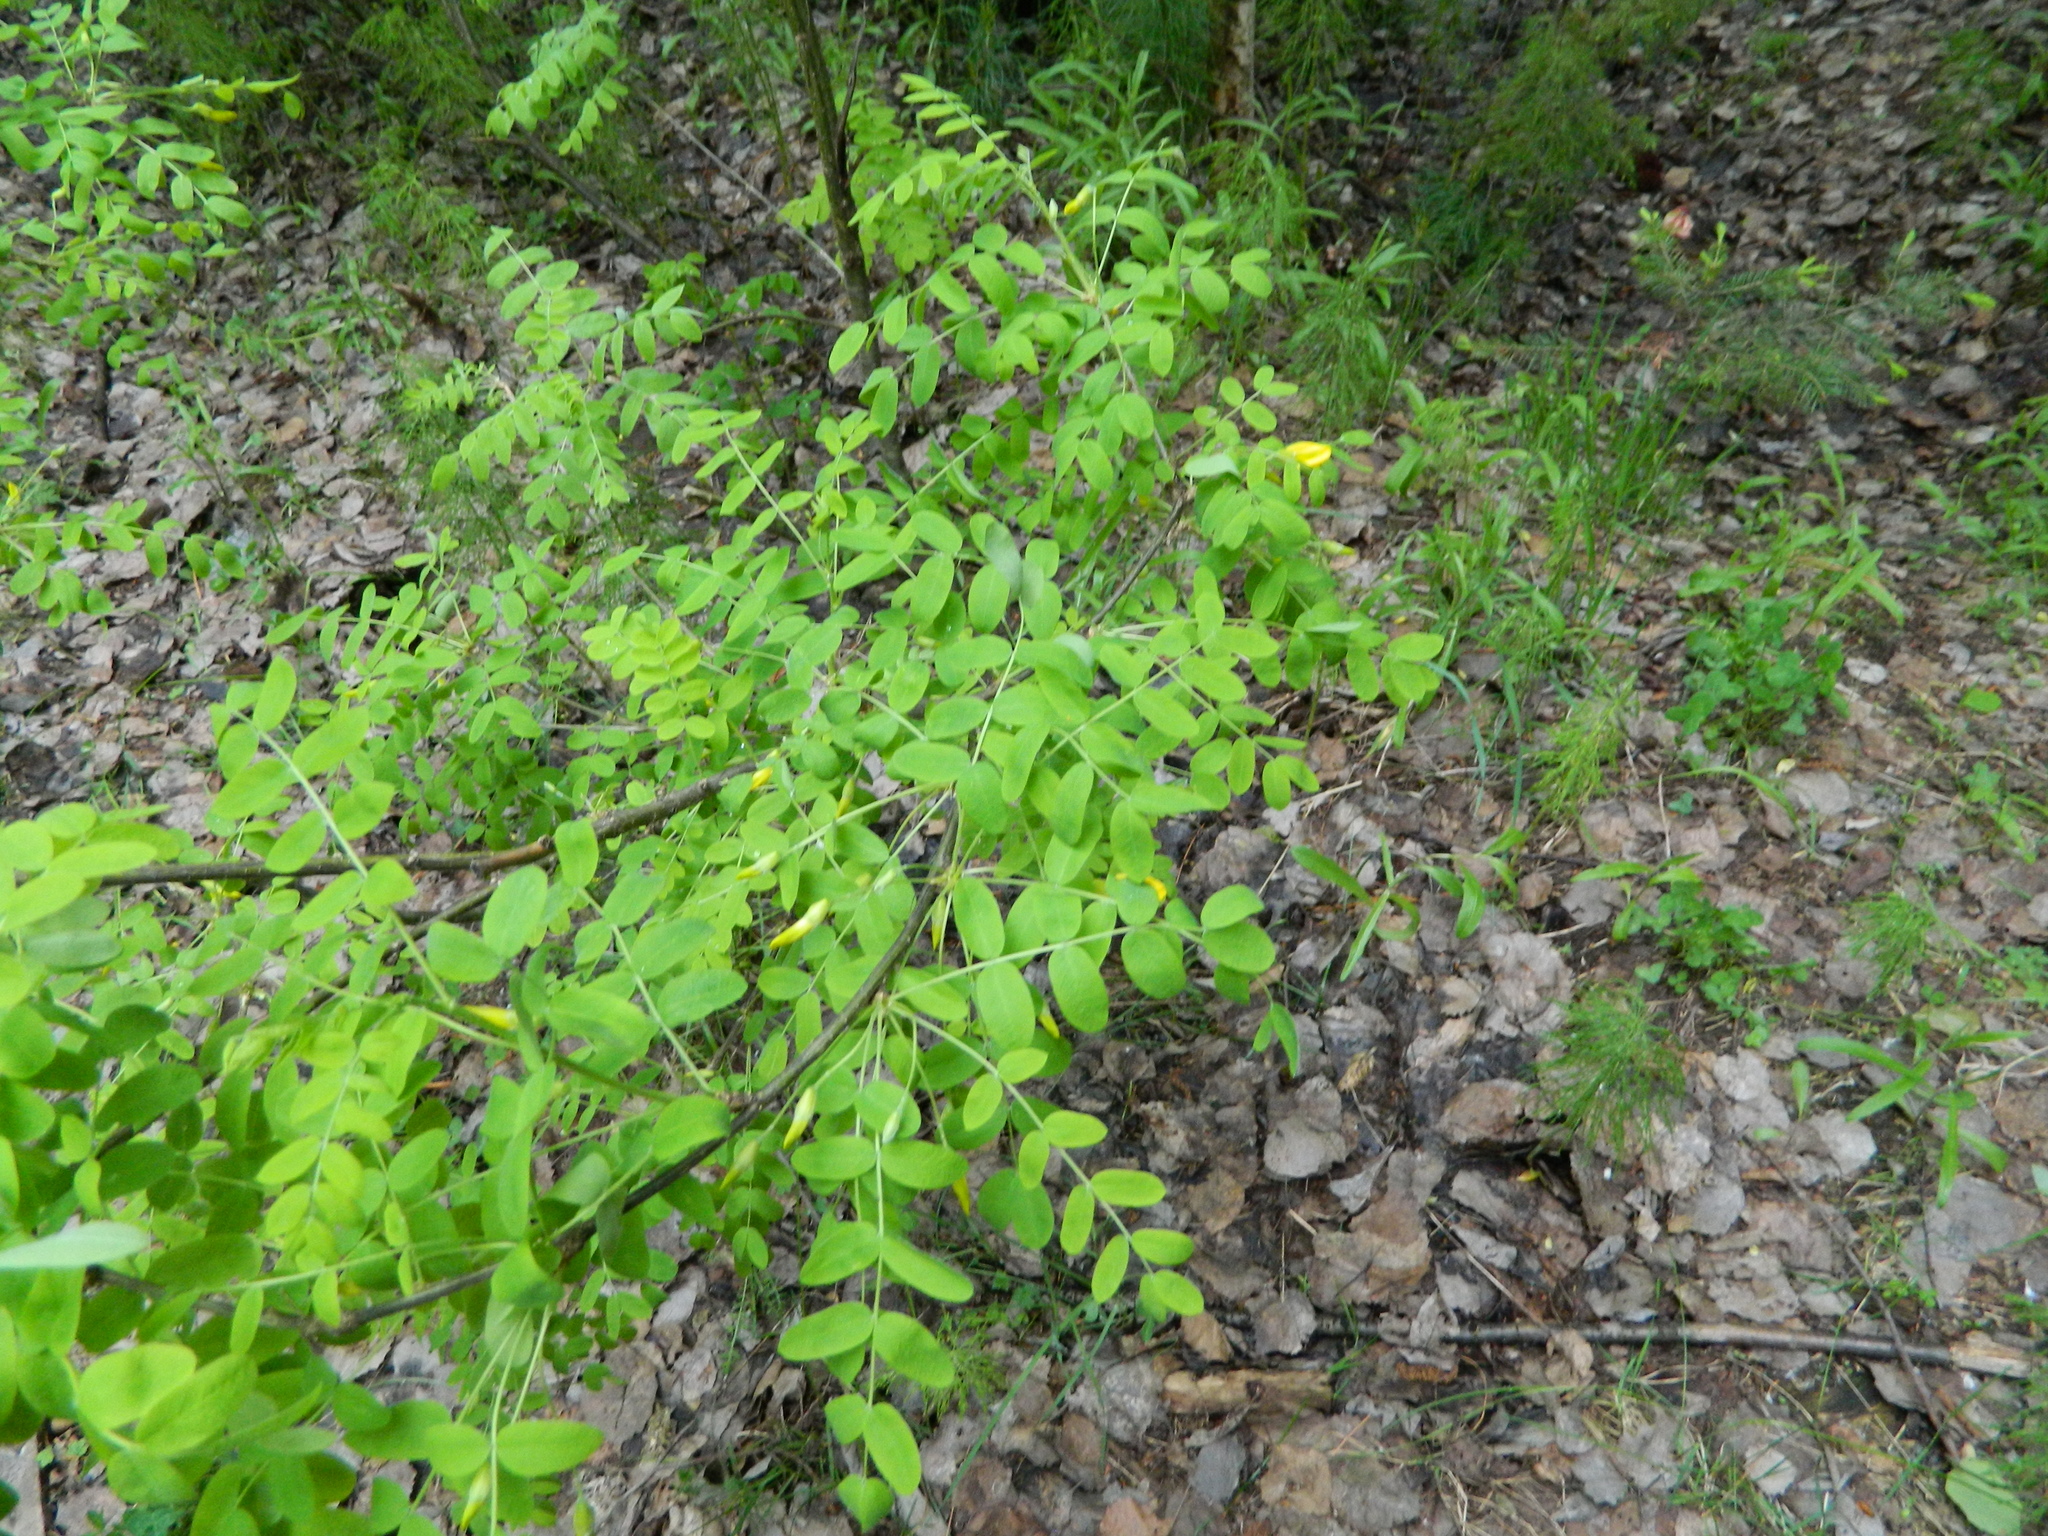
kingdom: Plantae
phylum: Tracheophyta
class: Magnoliopsida
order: Fabales
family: Fabaceae
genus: Caragana
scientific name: Caragana arborescens
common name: Siberian peashrub
